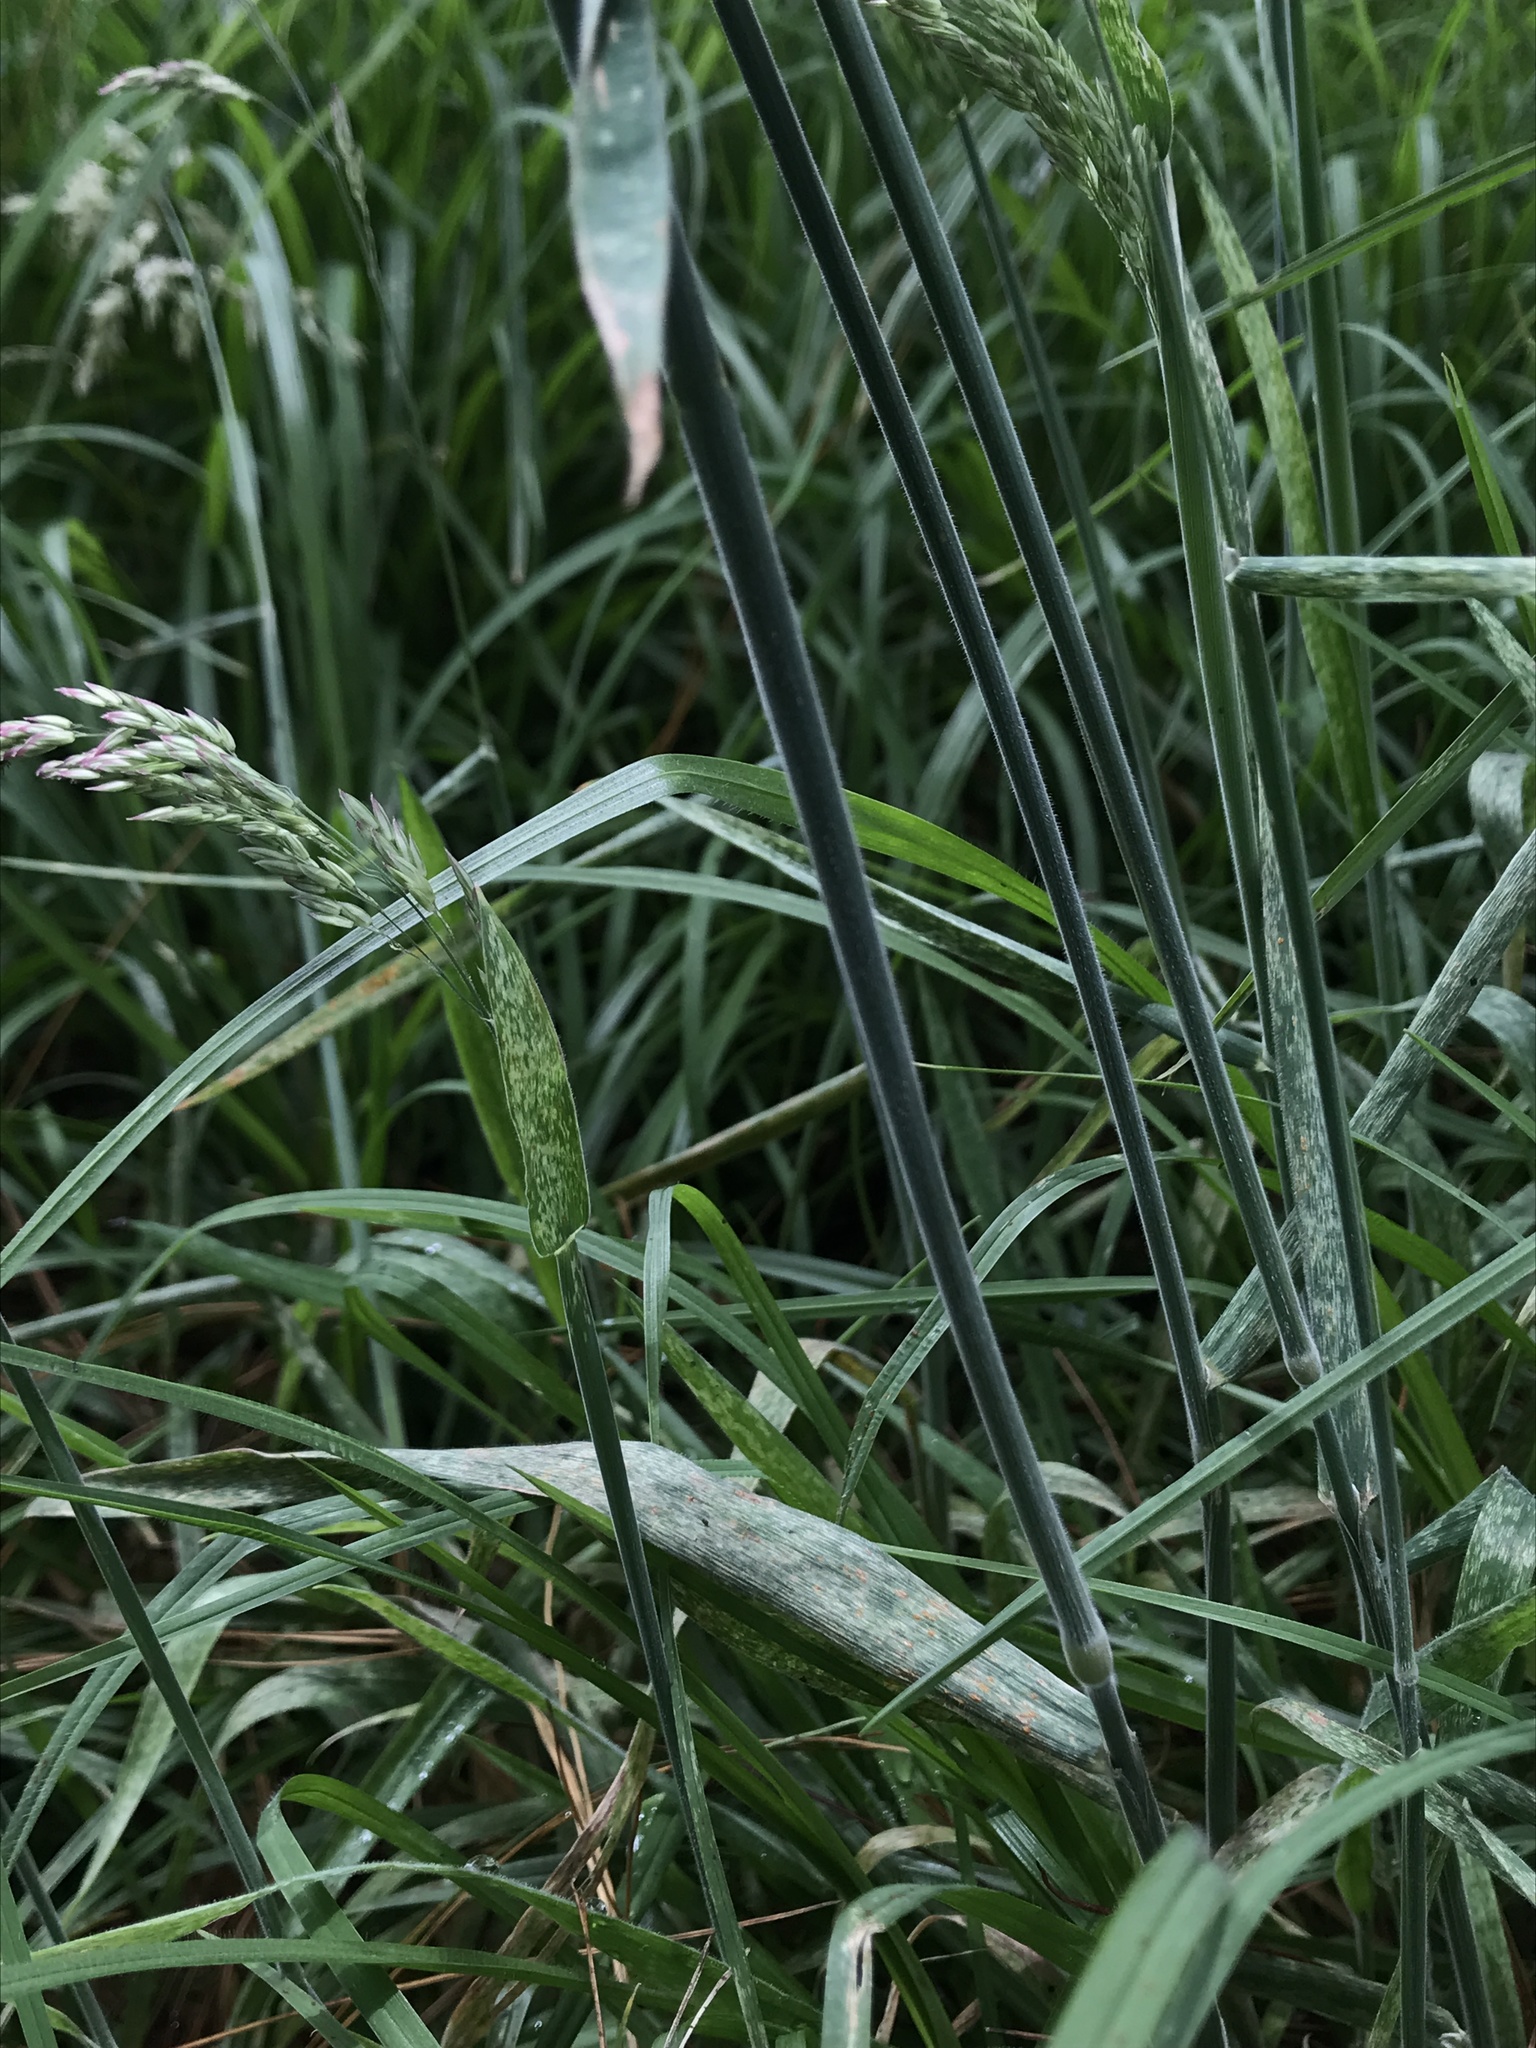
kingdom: Plantae
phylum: Tracheophyta
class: Liliopsida
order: Poales
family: Poaceae
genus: Holcus
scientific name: Holcus lanatus
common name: Yorkshire-fog
